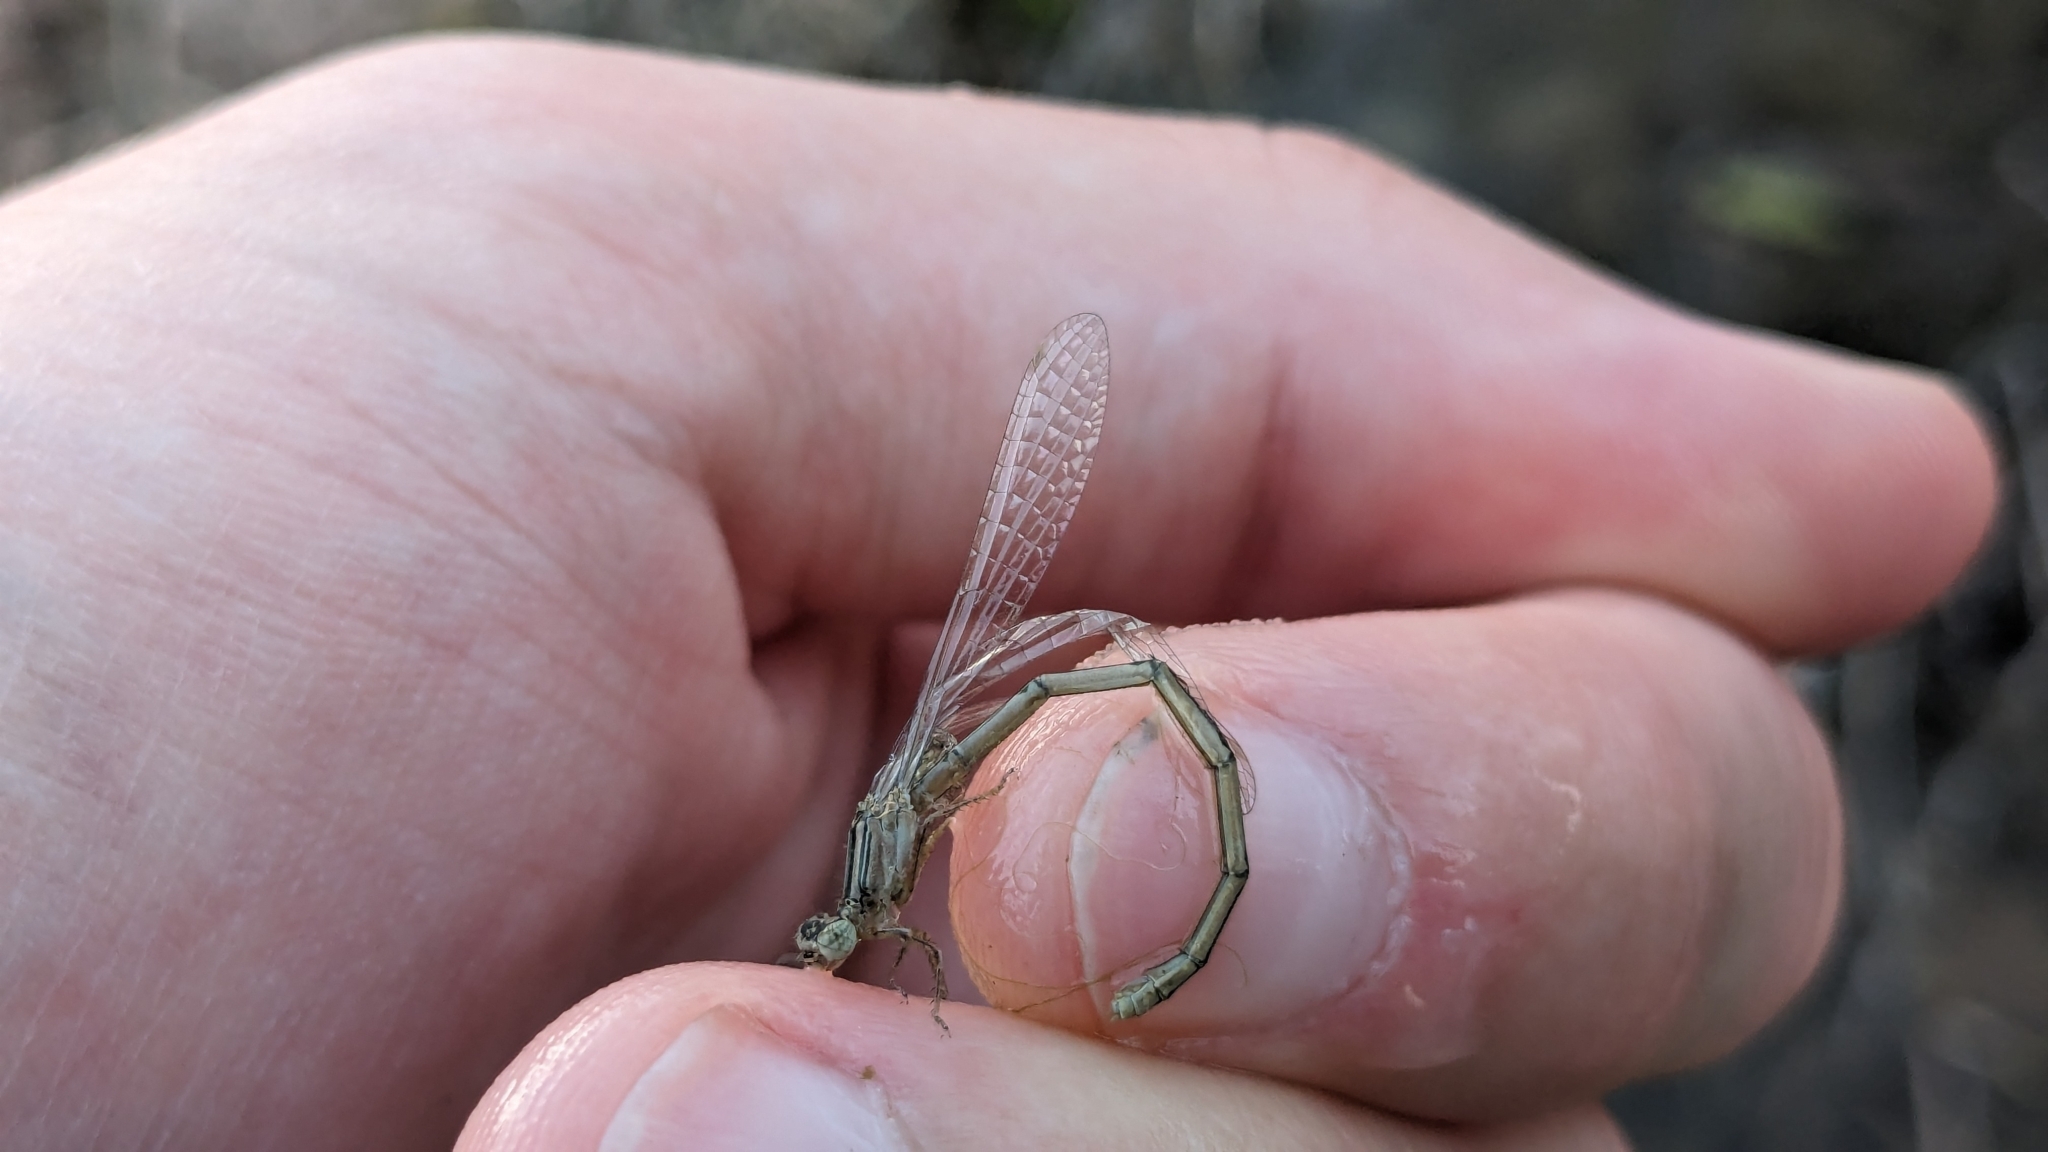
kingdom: Animalia
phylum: Arthropoda
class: Insecta
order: Odonata
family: Coenagrionidae
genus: Enallagma
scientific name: Enallagma basidens
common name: Double-striped bluet
